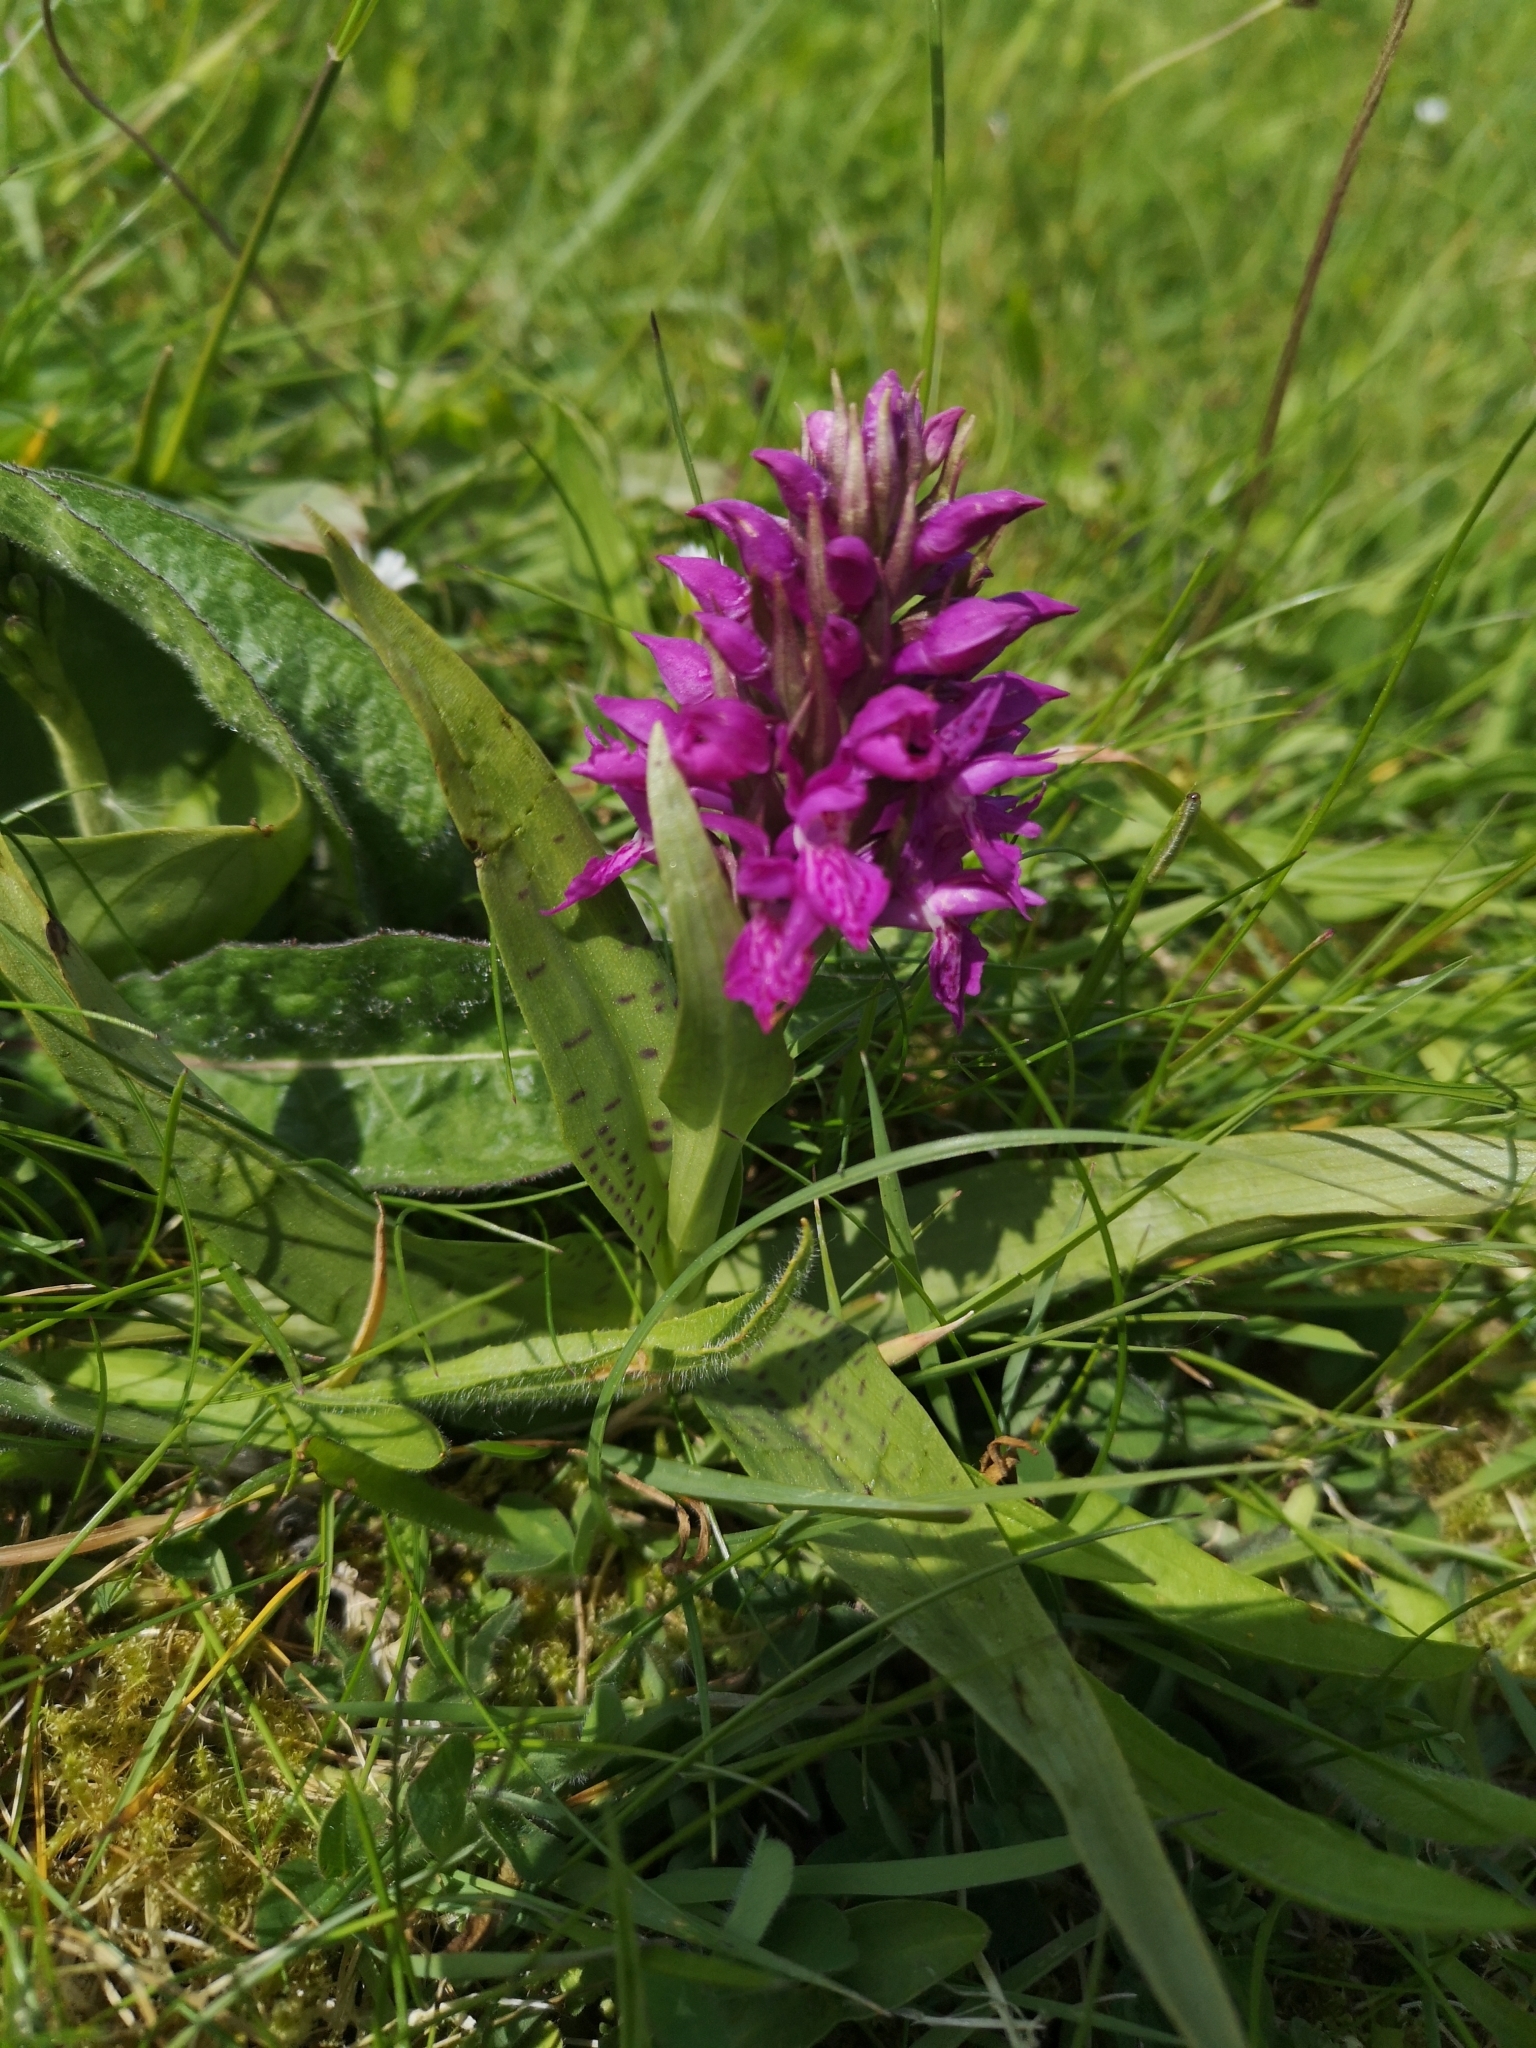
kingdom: Plantae
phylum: Tracheophyta
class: Liliopsida
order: Asparagales
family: Orchidaceae
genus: Dactylorhiza
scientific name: Dactylorhiza majalis
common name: Marsh orchid
